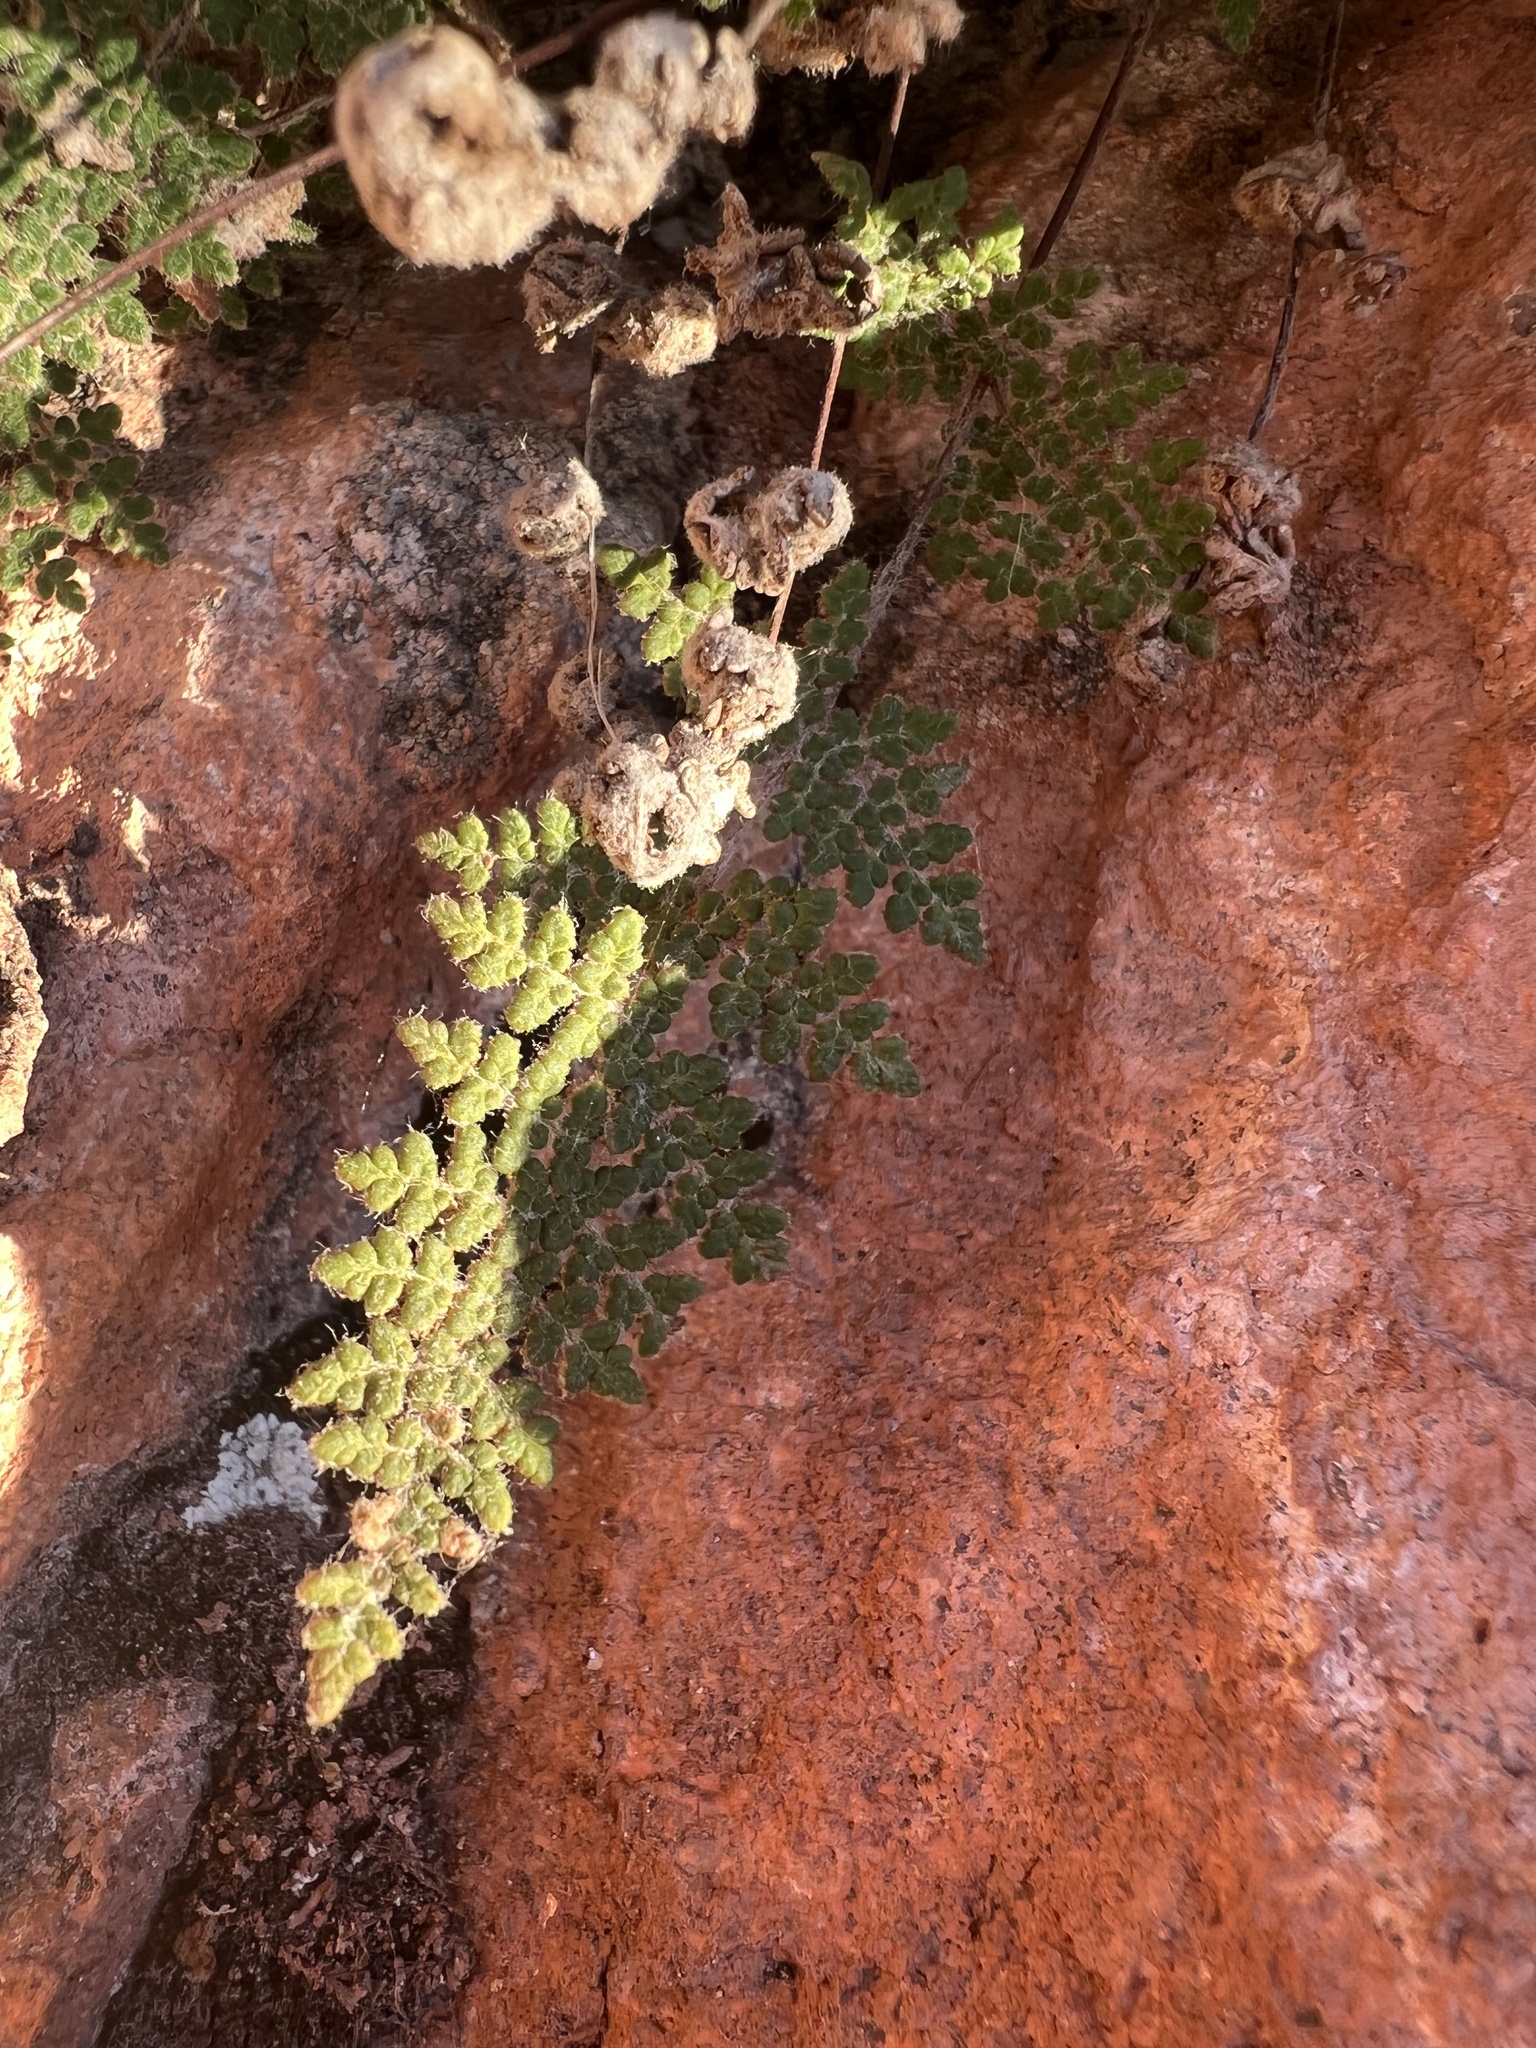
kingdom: Plantae
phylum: Tracheophyta
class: Polypodiopsida
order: Polypodiales
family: Pteridaceae
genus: Myriopteris
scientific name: Myriopteris gracilis
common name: Fee's lip fern
